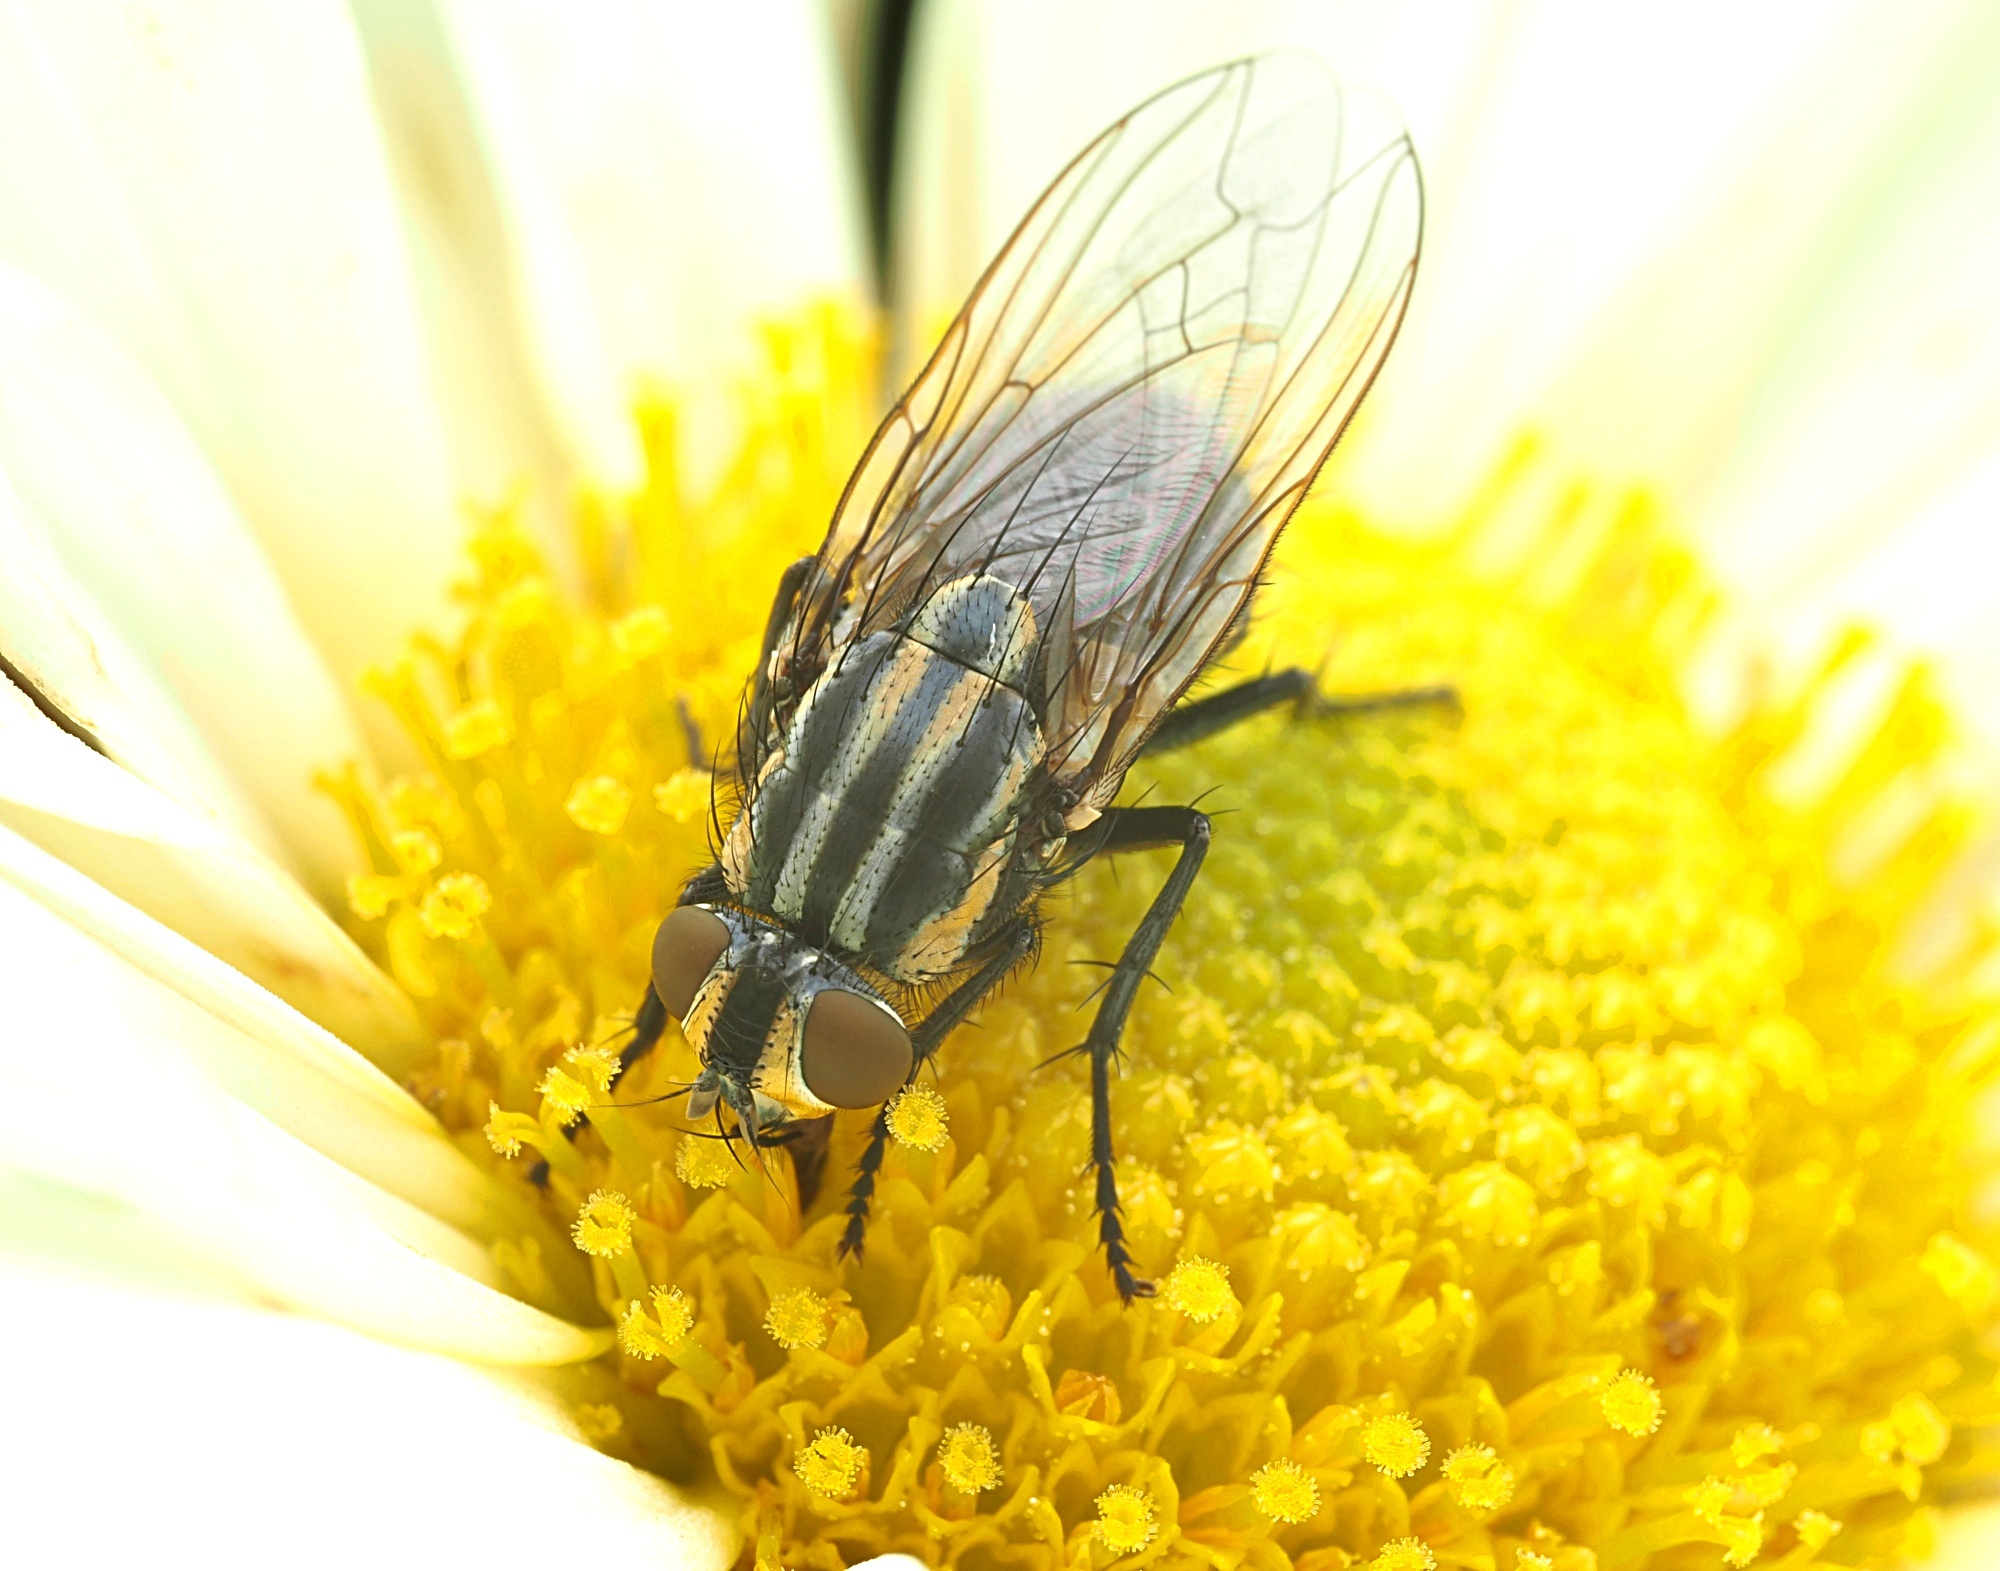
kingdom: Animalia
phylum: Arthropoda
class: Insecta
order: Diptera
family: Sarcophagidae
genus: Oxysarcodexia
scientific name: Oxysarcodexia varia
